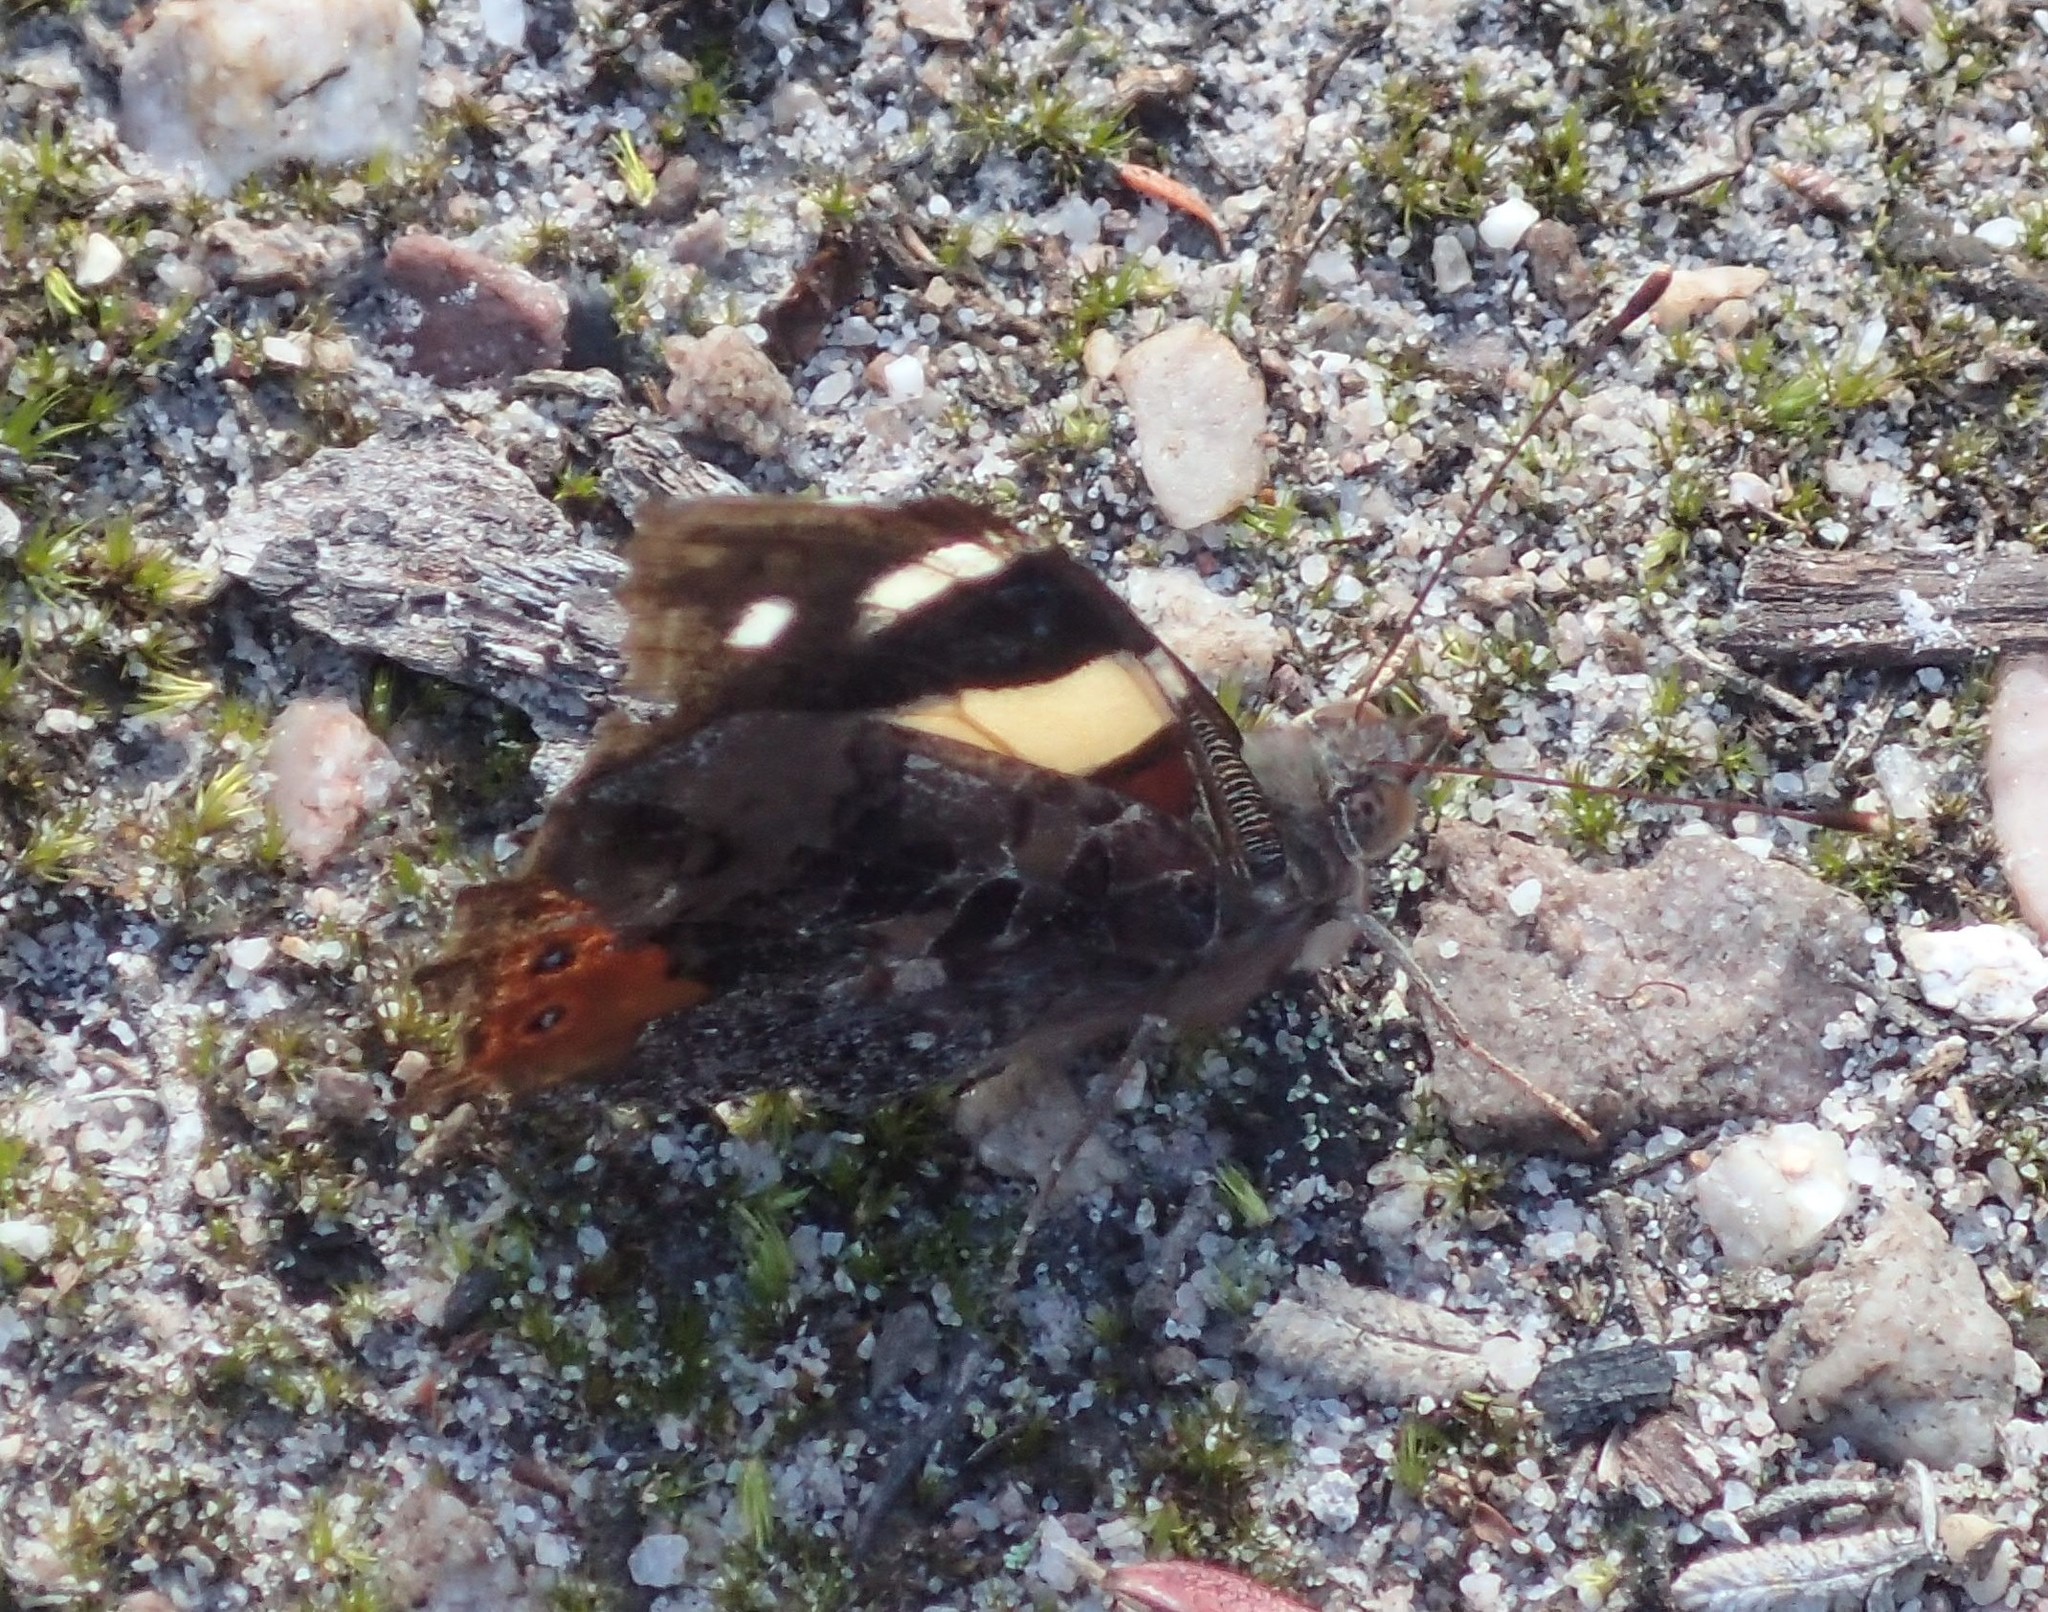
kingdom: Animalia
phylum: Arthropoda
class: Insecta
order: Lepidoptera
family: Nymphalidae
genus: Vanessa
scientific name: Vanessa itea
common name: Yellow admiral
